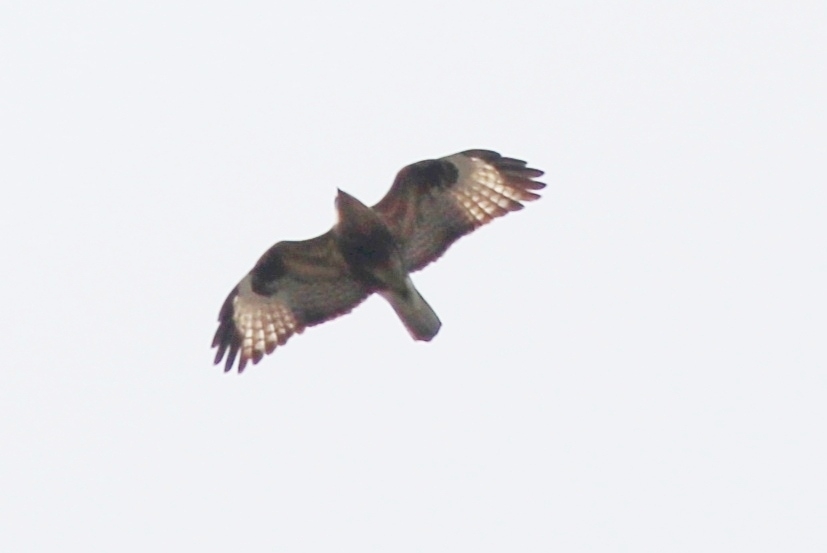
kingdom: Animalia
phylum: Chordata
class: Aves
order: Accipitriformes
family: Accipitridae
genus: Buteo
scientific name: Buteo japonicus
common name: Eastern buzzard
